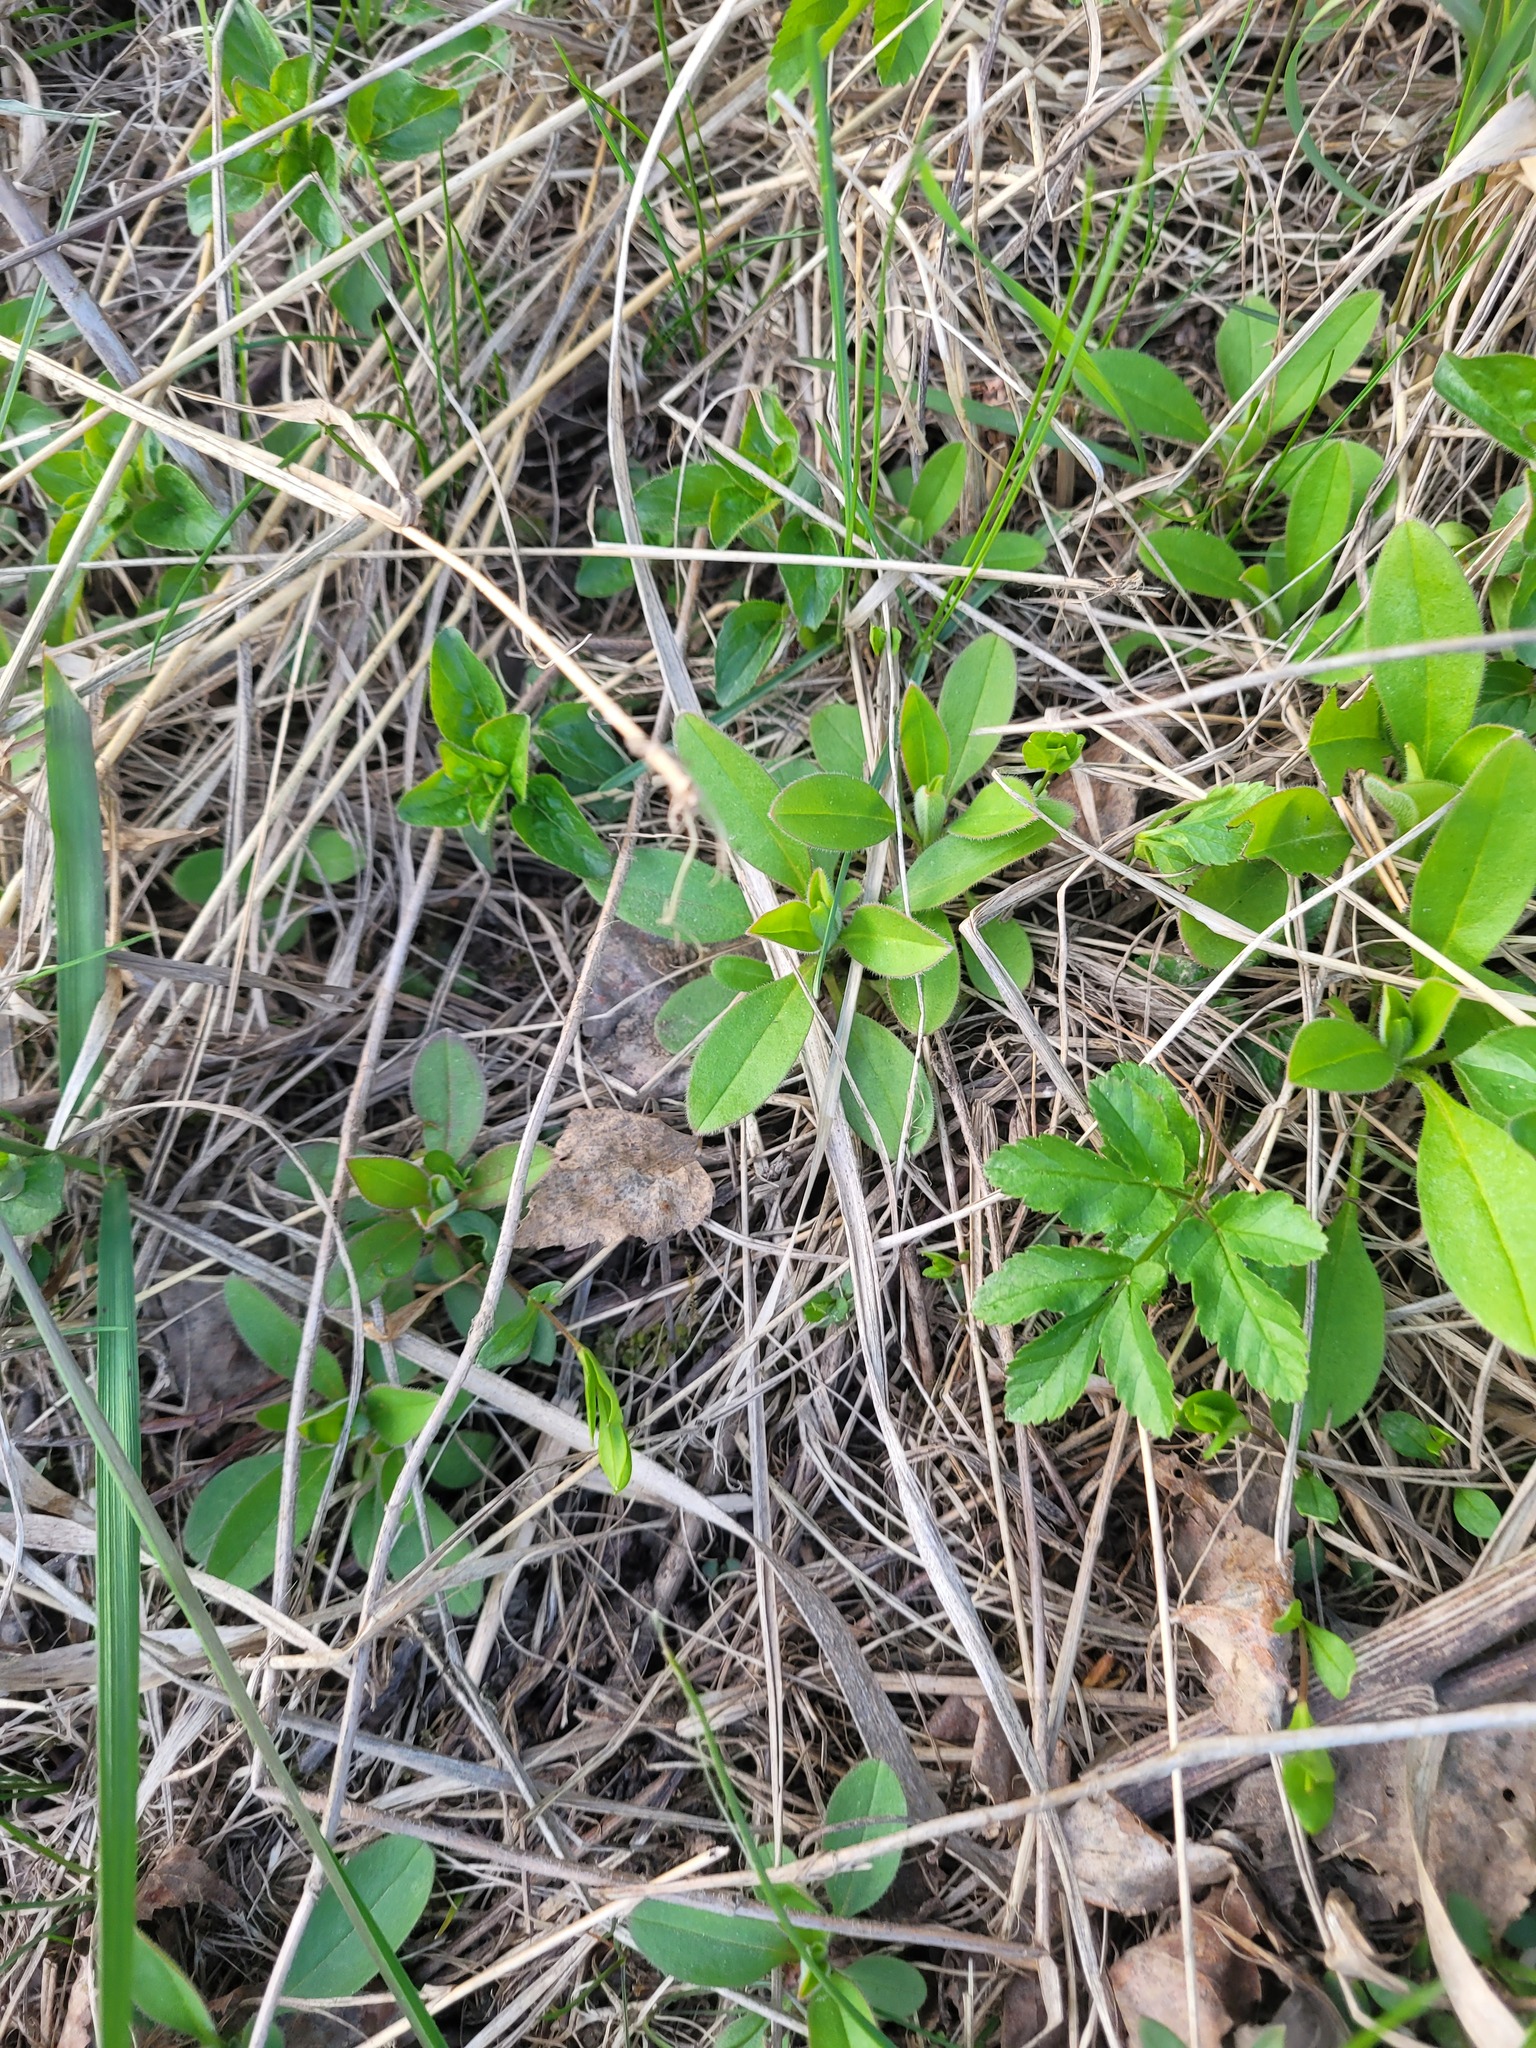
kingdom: Plantae
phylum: Tracheophyta
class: Magnoliopsida
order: Boraginales
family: Boraginaceae
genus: Myosotis
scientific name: Myosotis sparsiflora
